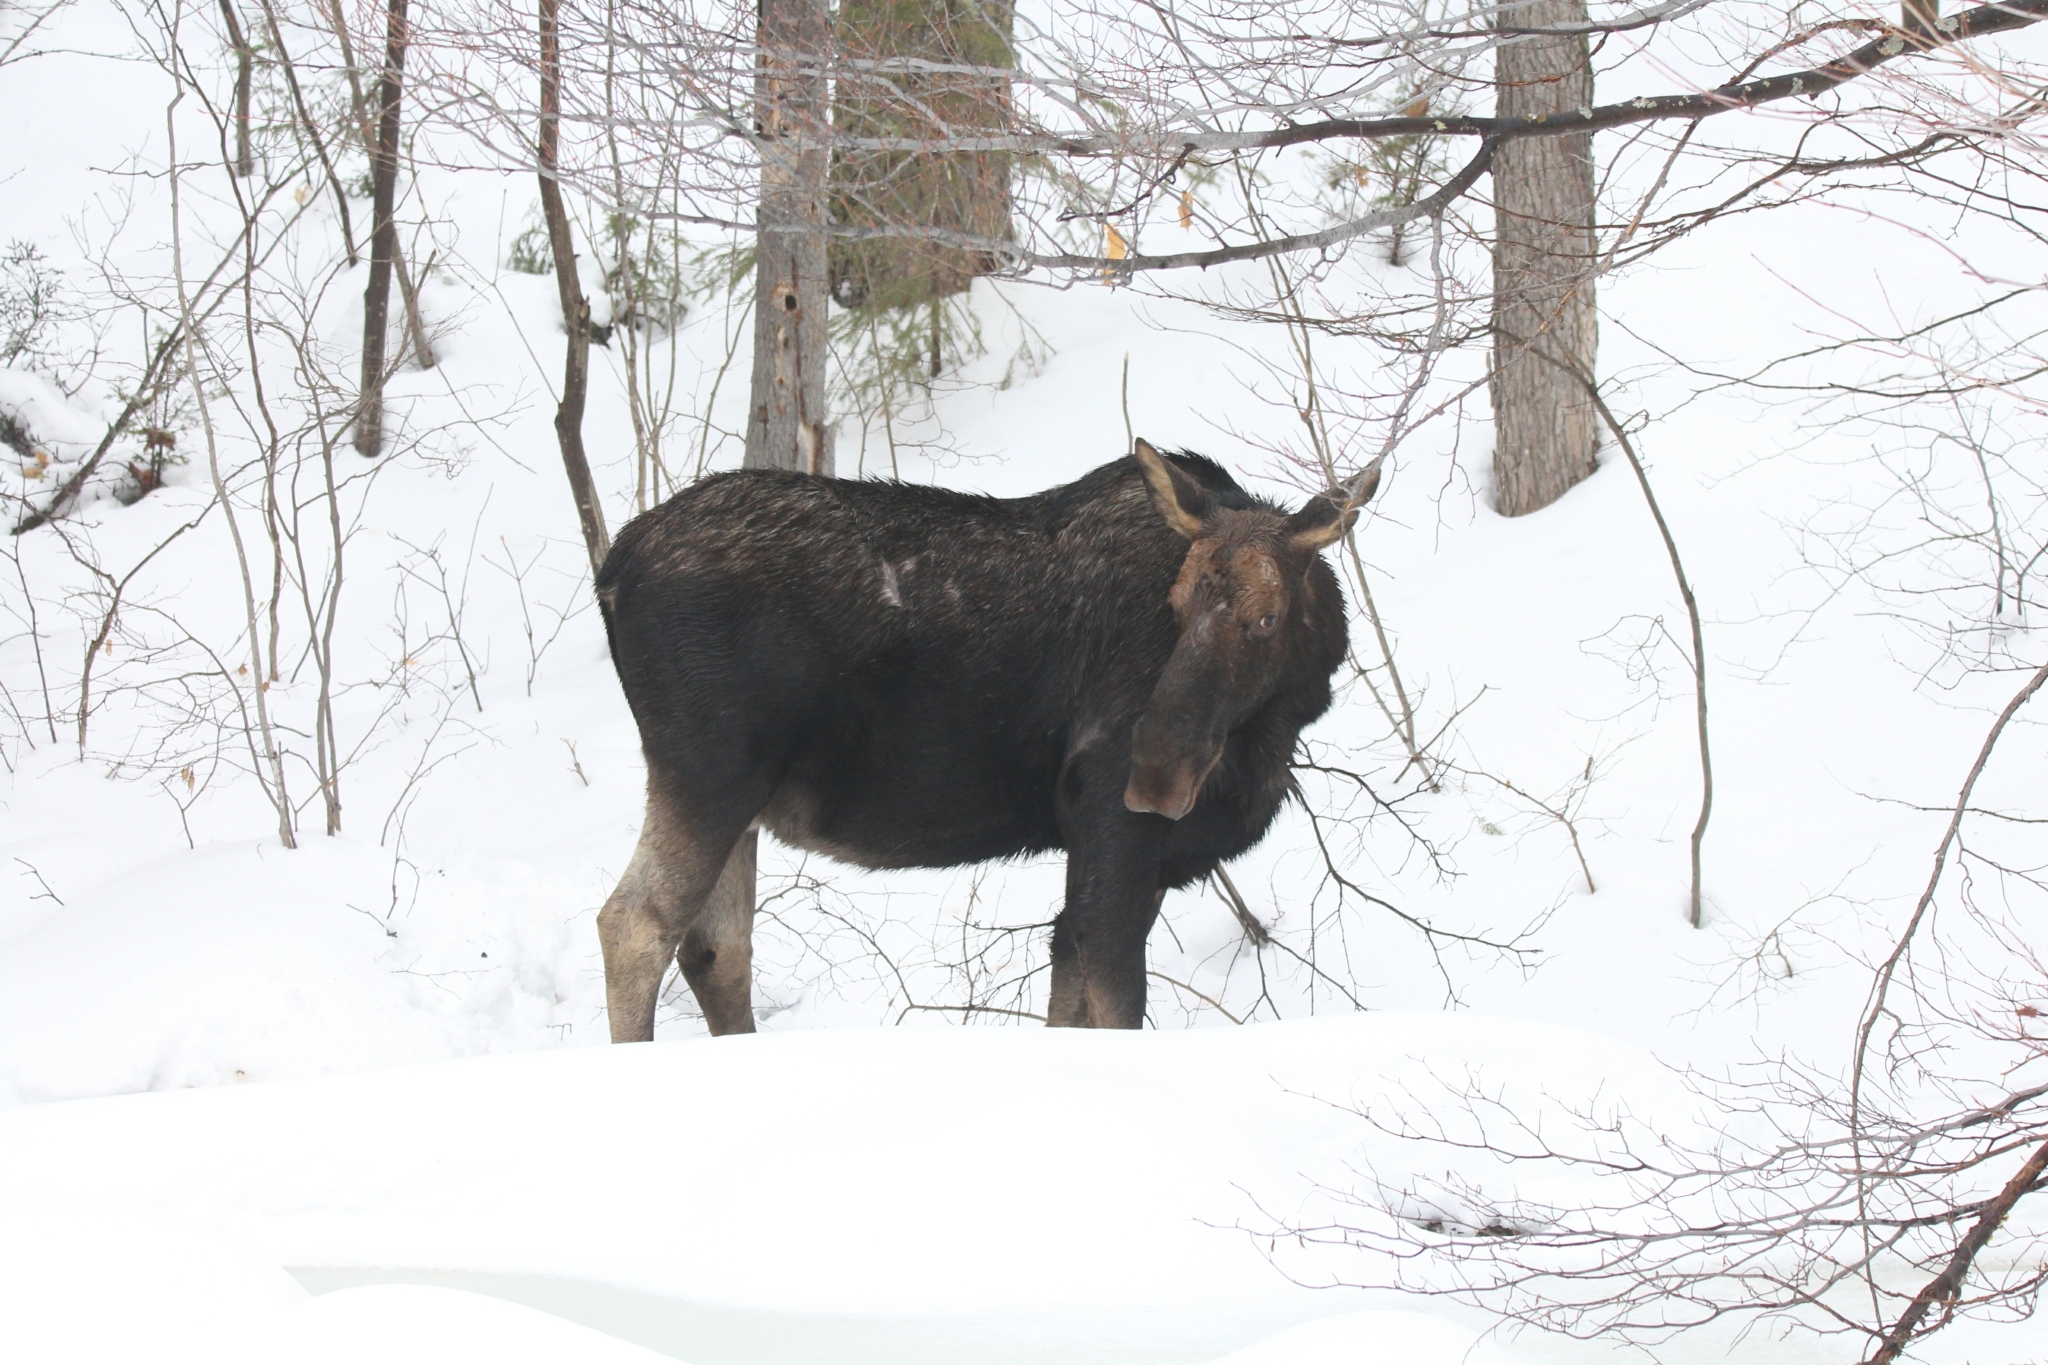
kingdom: Animalia
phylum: Chordata
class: Mammalia
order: Artiodactyla
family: Cervidae
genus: Alces
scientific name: Alces alces
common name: Moose
